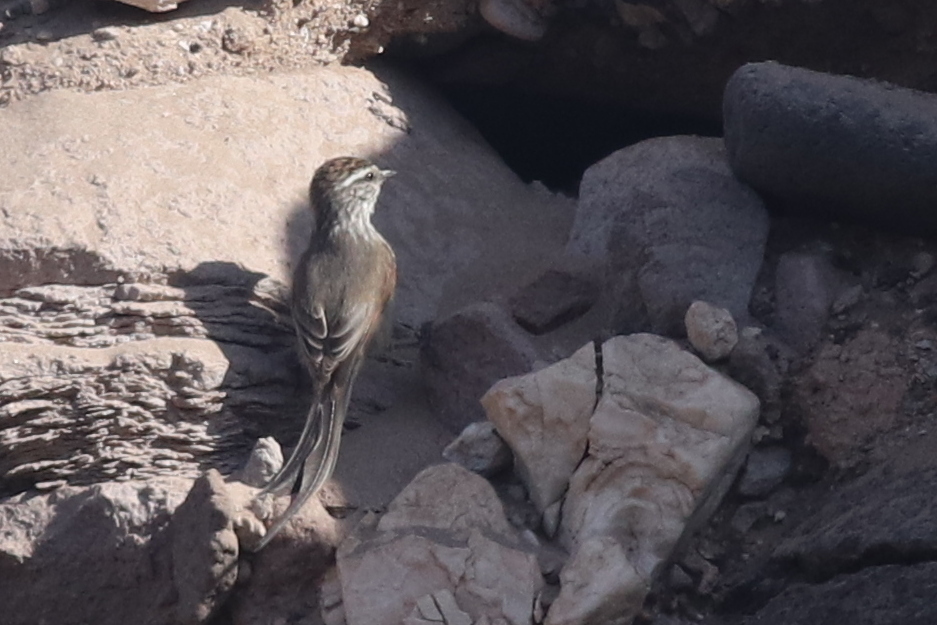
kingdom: Animalia
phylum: Chordata
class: Aves
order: Passeriformes
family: Furnariidae
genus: Leptasthenura
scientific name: Leptasthenura aegithaloides
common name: Plain-mantled tit-spinetail
